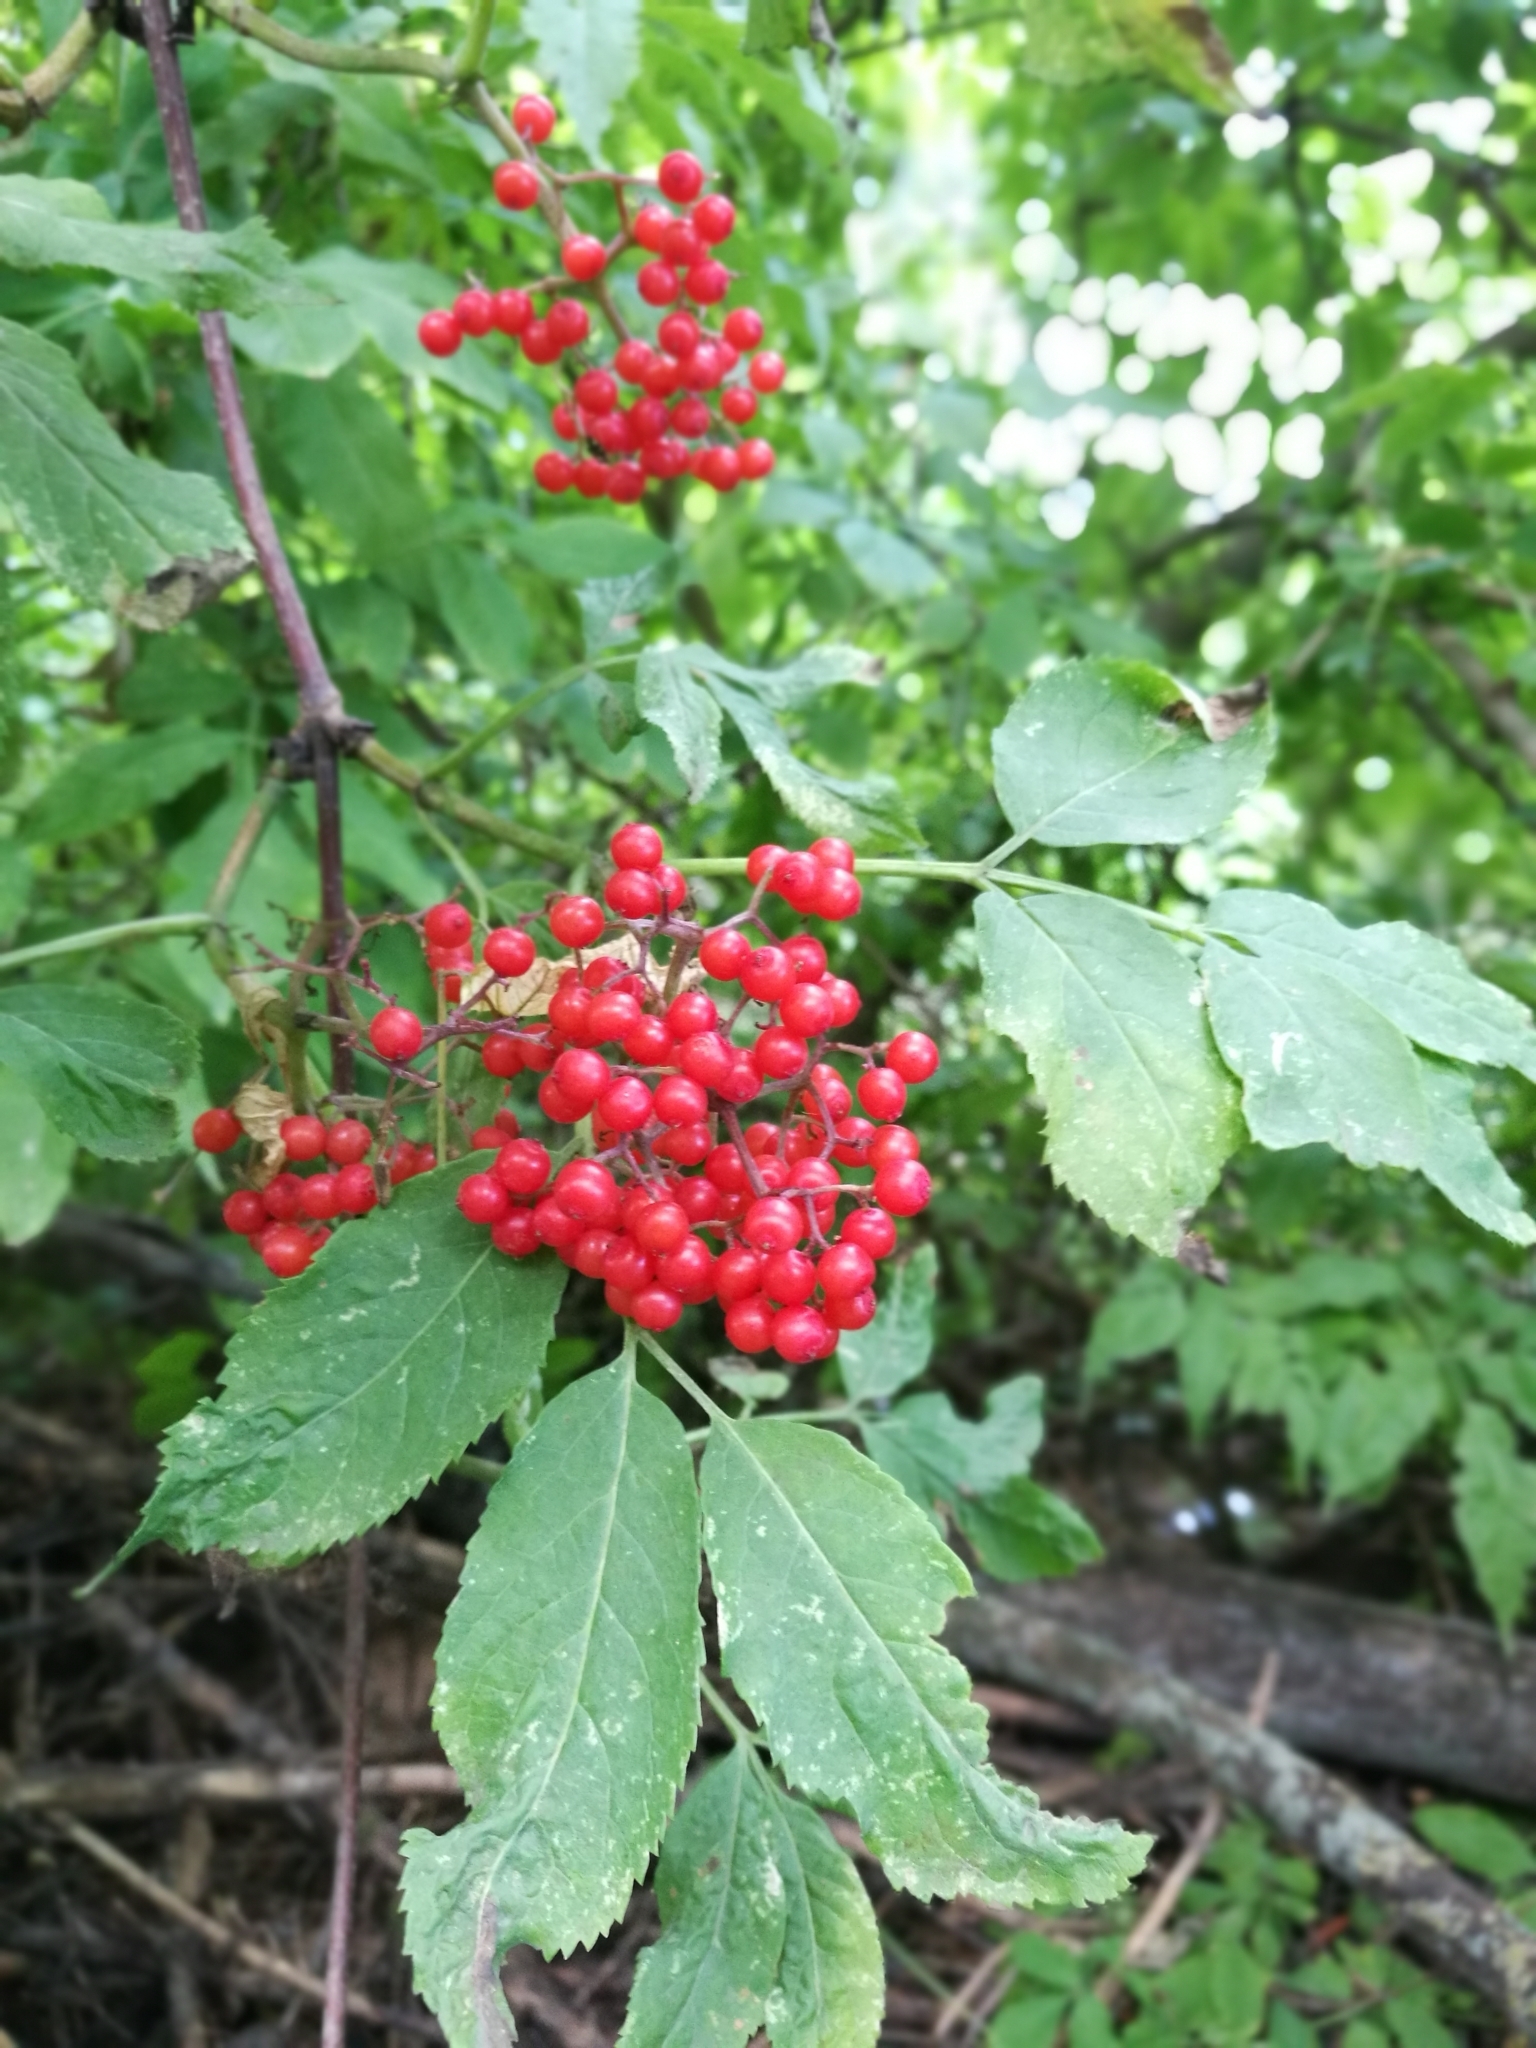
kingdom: Plantae
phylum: Tracheophyta
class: Magnoliopsida
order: Dipsacales
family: Viburnaceae
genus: Sambucus
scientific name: Sambucus racemosa
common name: Red-berried elder
